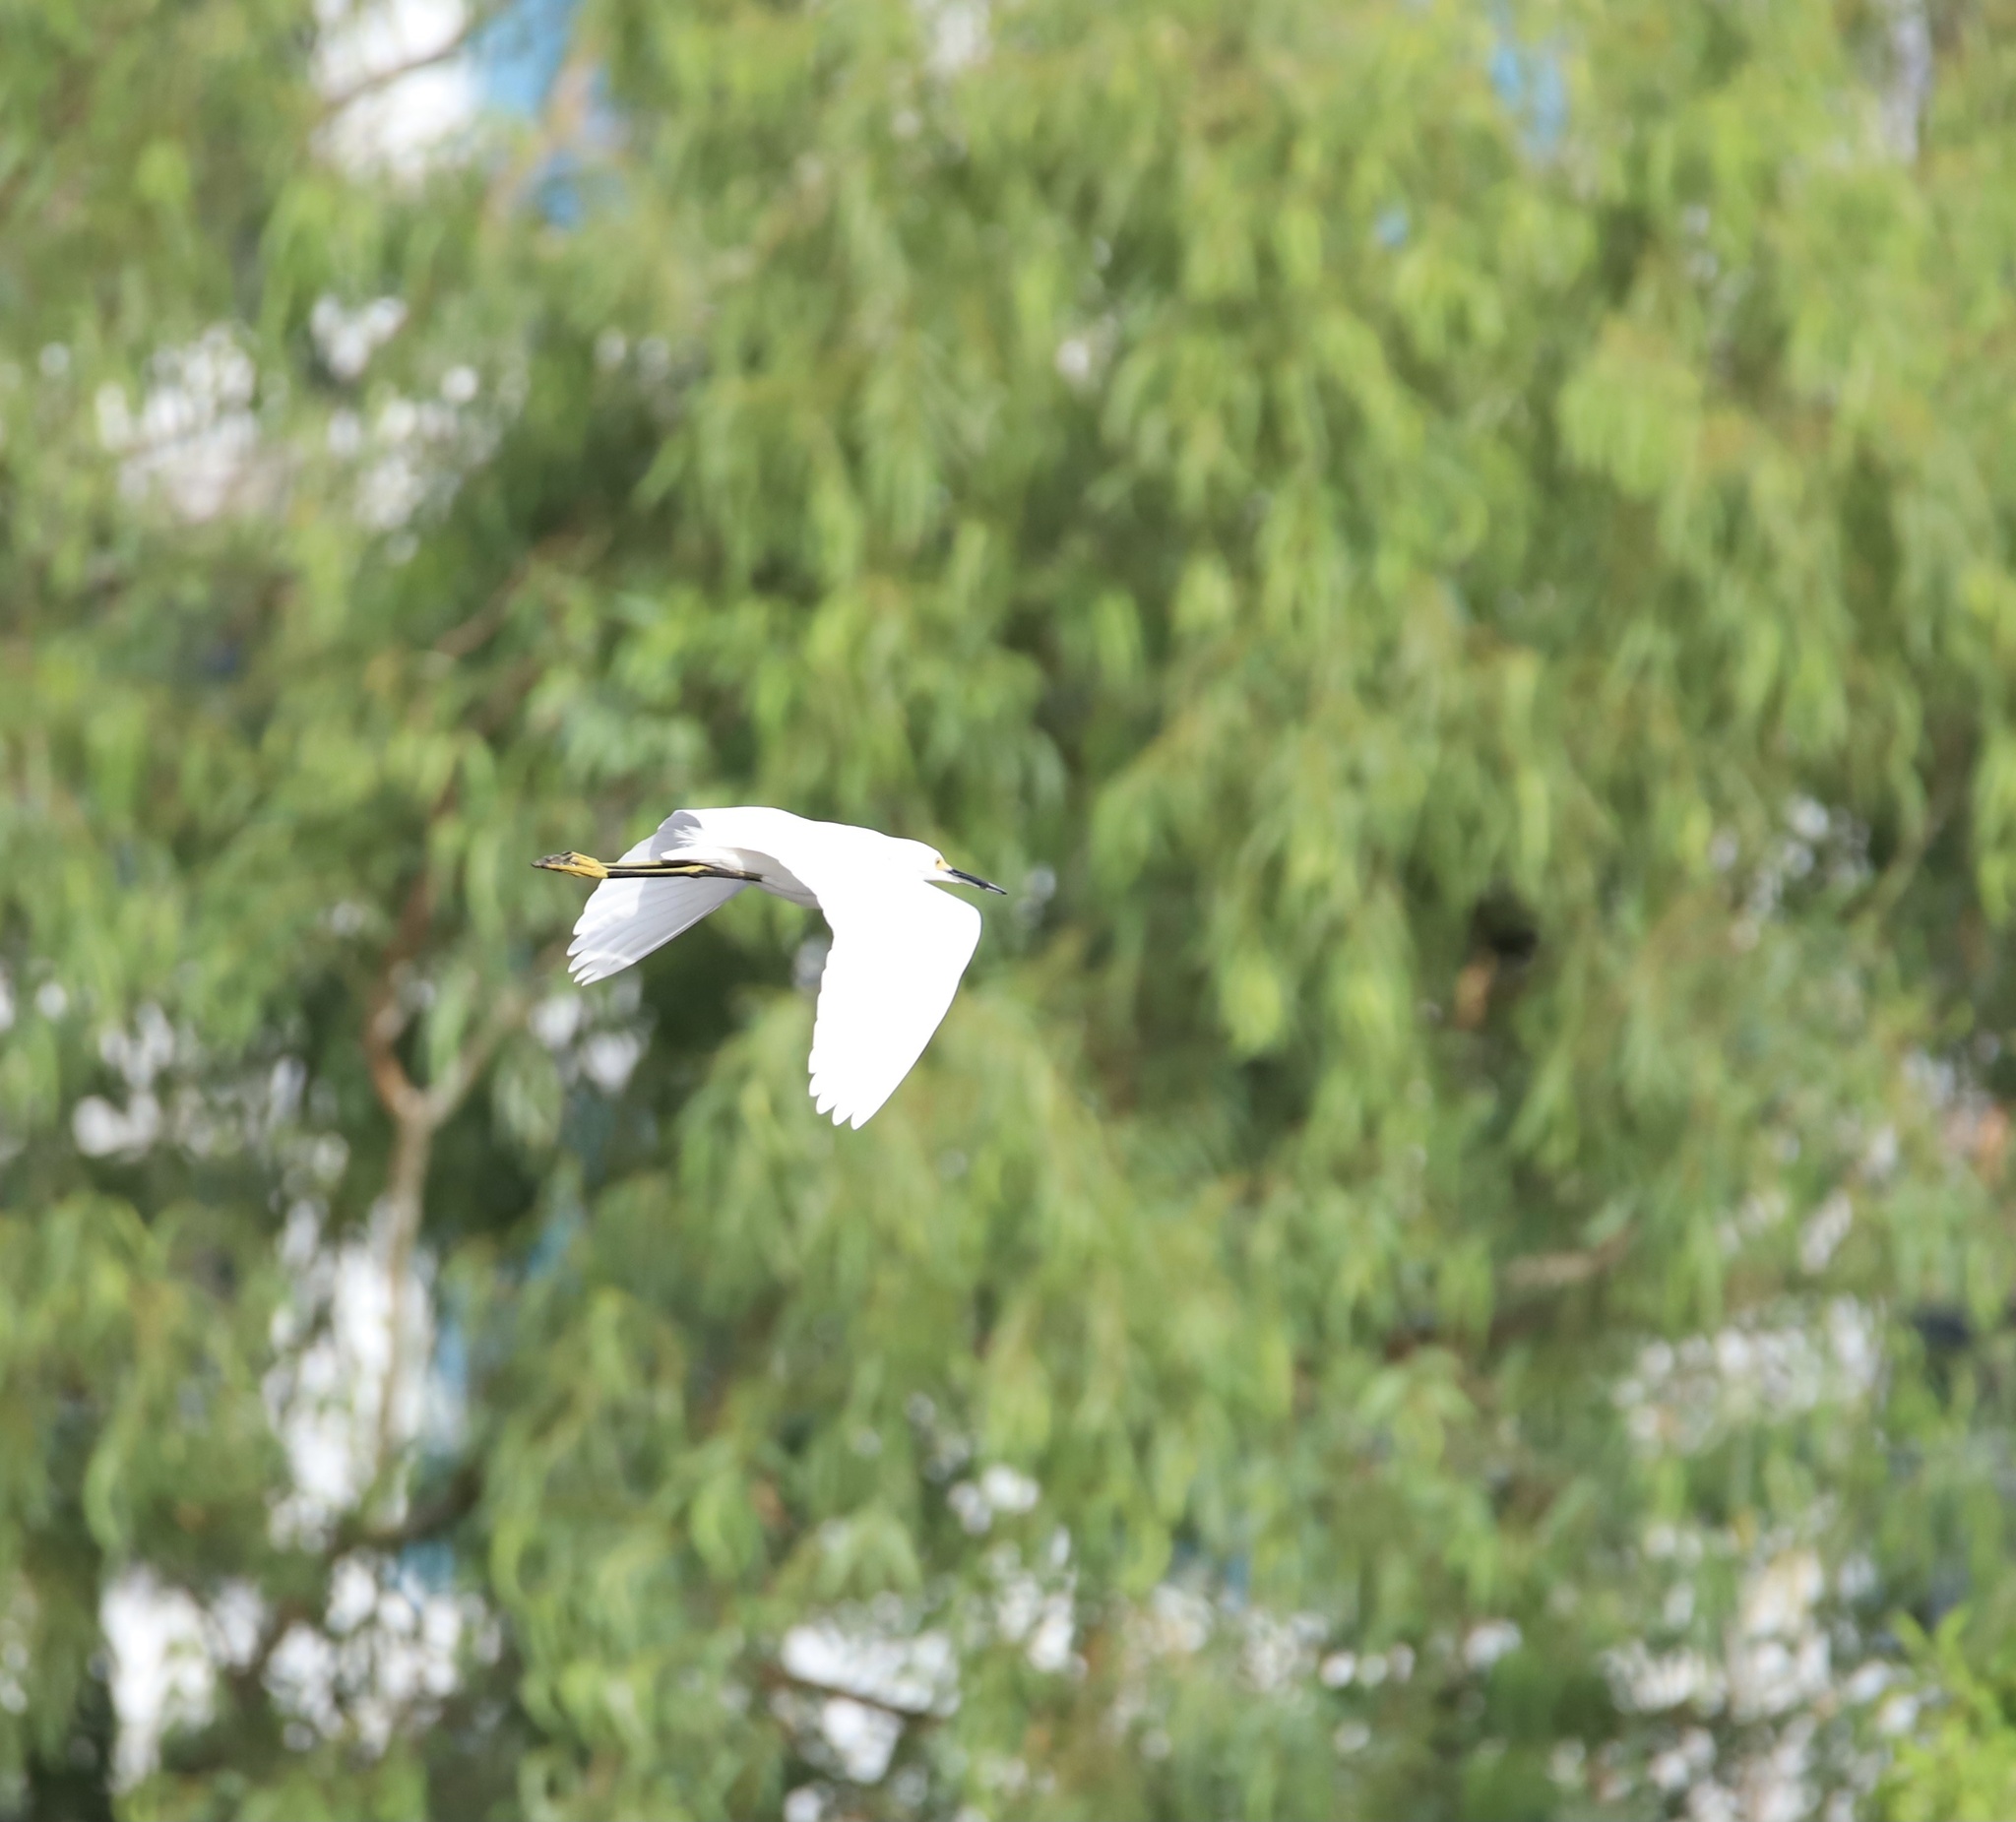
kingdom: Animalia
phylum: Chordata
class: Aves
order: Pelecaniformes
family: Ardeidae
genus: Egretta
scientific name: Egretta thula
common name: Snowy egret
